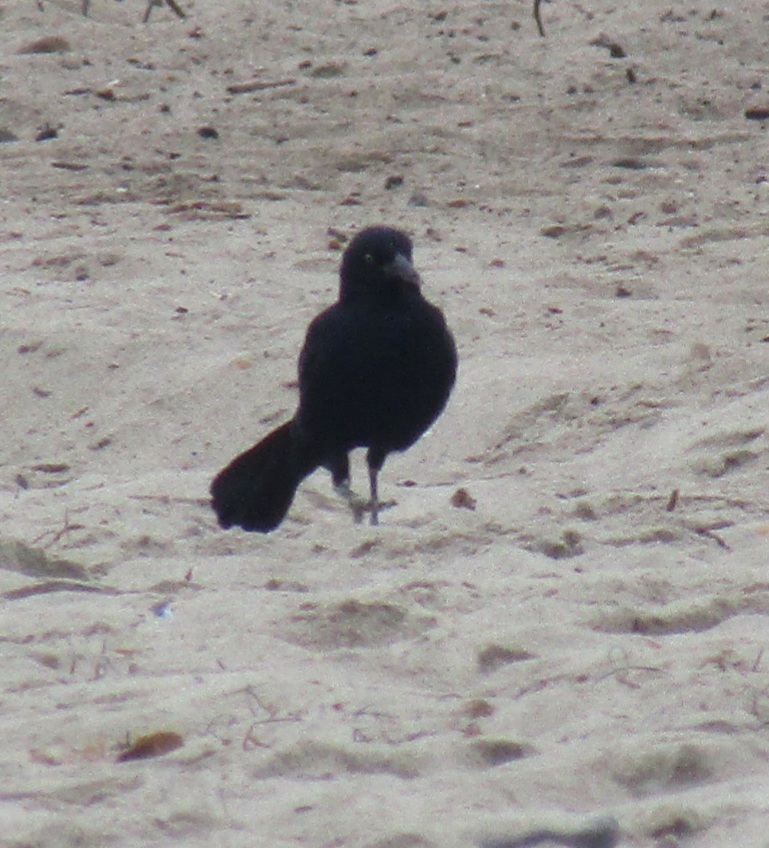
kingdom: Animalia
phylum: Chordata
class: Aves
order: Passeriformes
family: Icteridae
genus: Quiscalus
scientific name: Quiscalus mexicanus
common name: Great-tailed grackle
